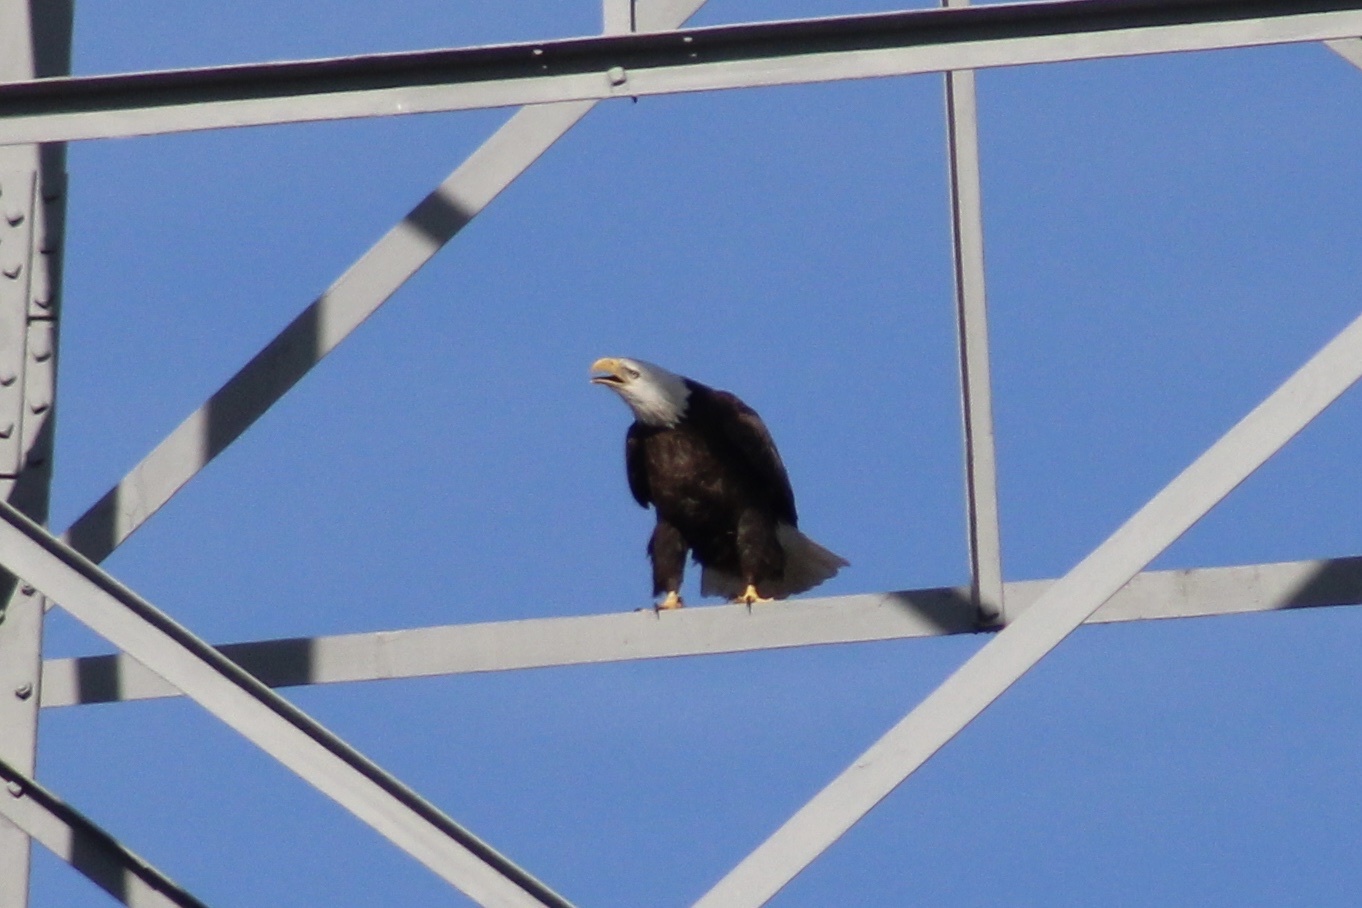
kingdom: Animalia
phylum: Chordata
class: Aves
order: Accipitriformes
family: Accipitridae
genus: Haliaeetus
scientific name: Haliaeetus leucocephalus
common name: Bald eagle
